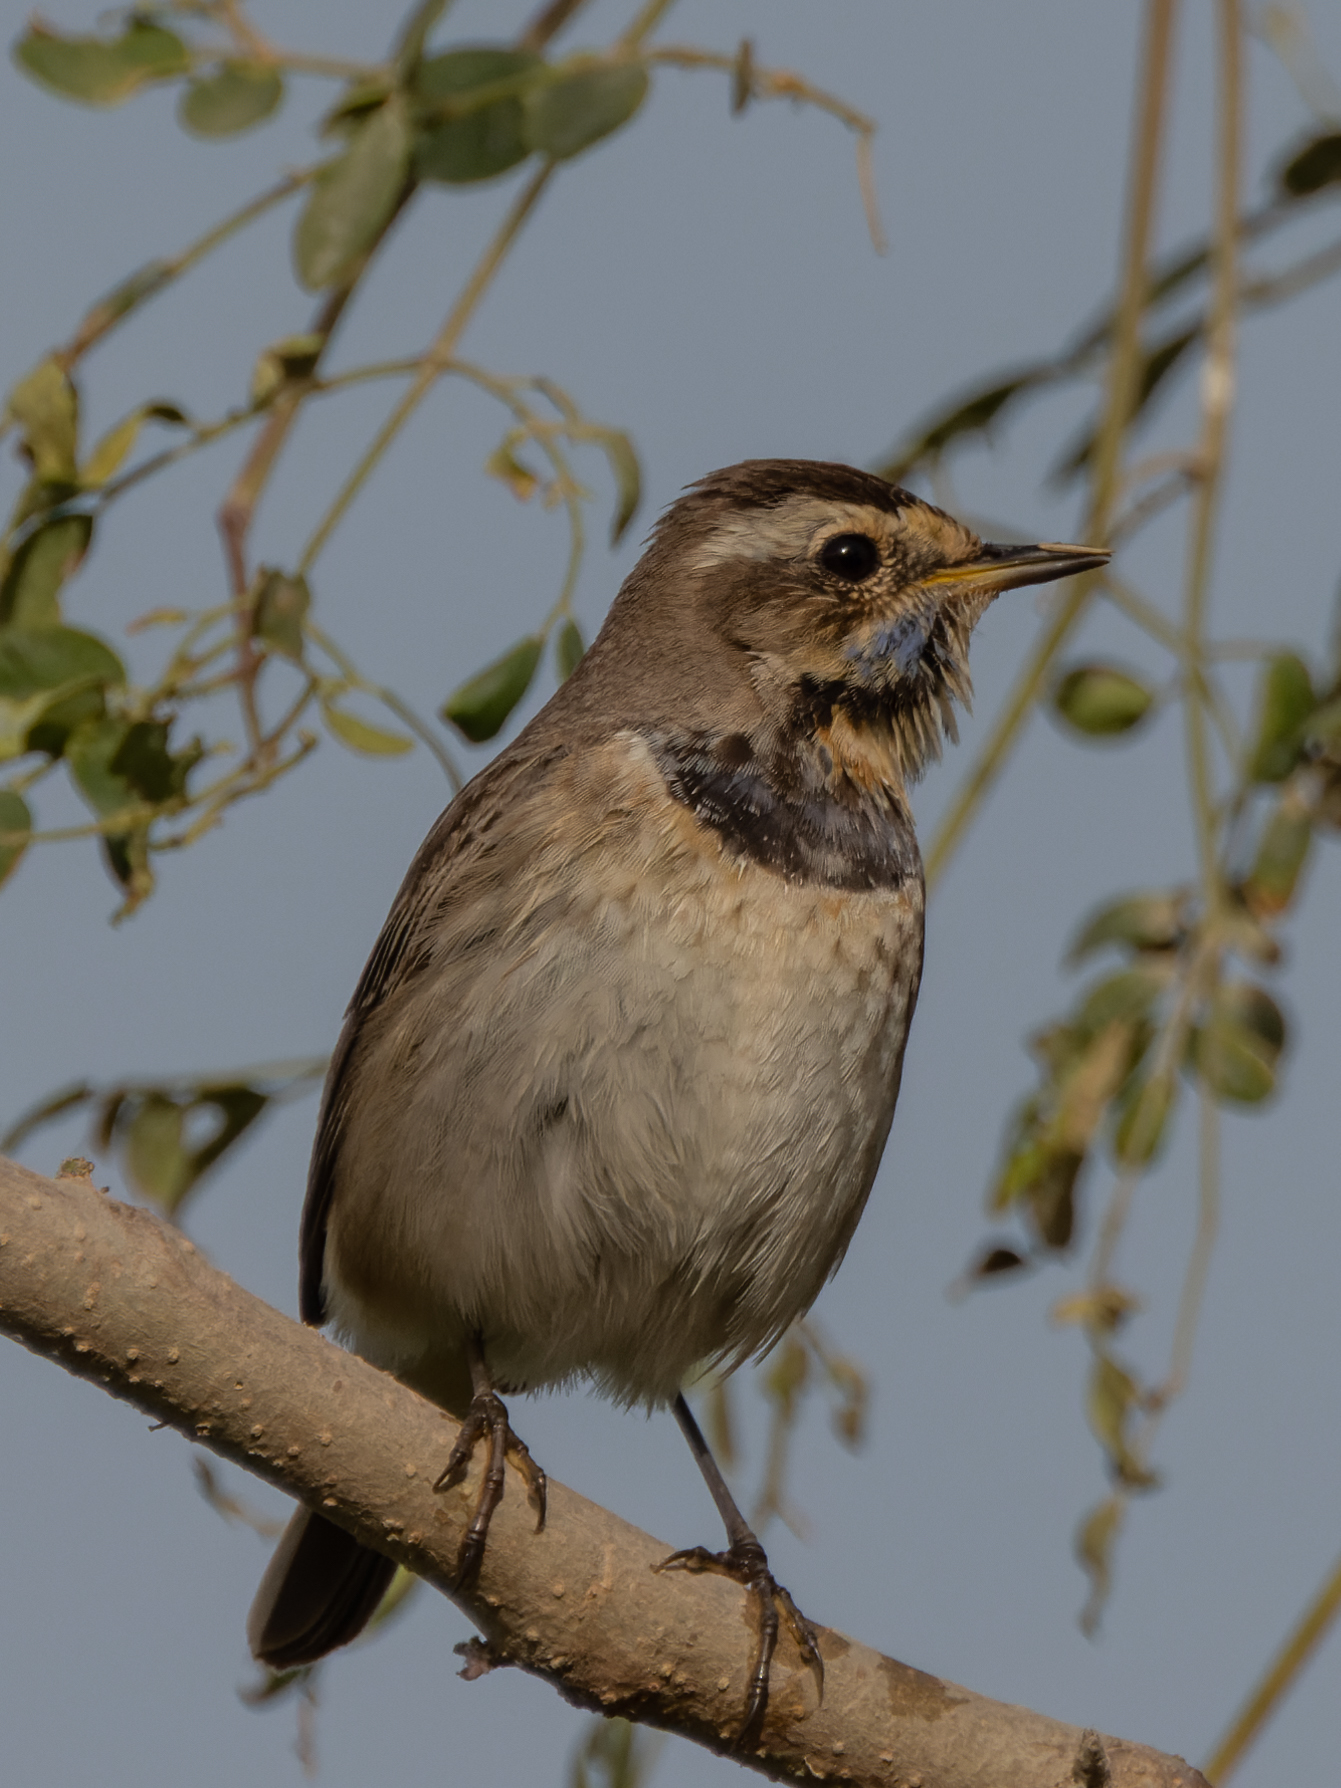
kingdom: Animalia
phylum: Chordata
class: Aves
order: Passeriformes
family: Muscicapidae
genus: Luscinia
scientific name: Luscinia svecica
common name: Bluethroat
